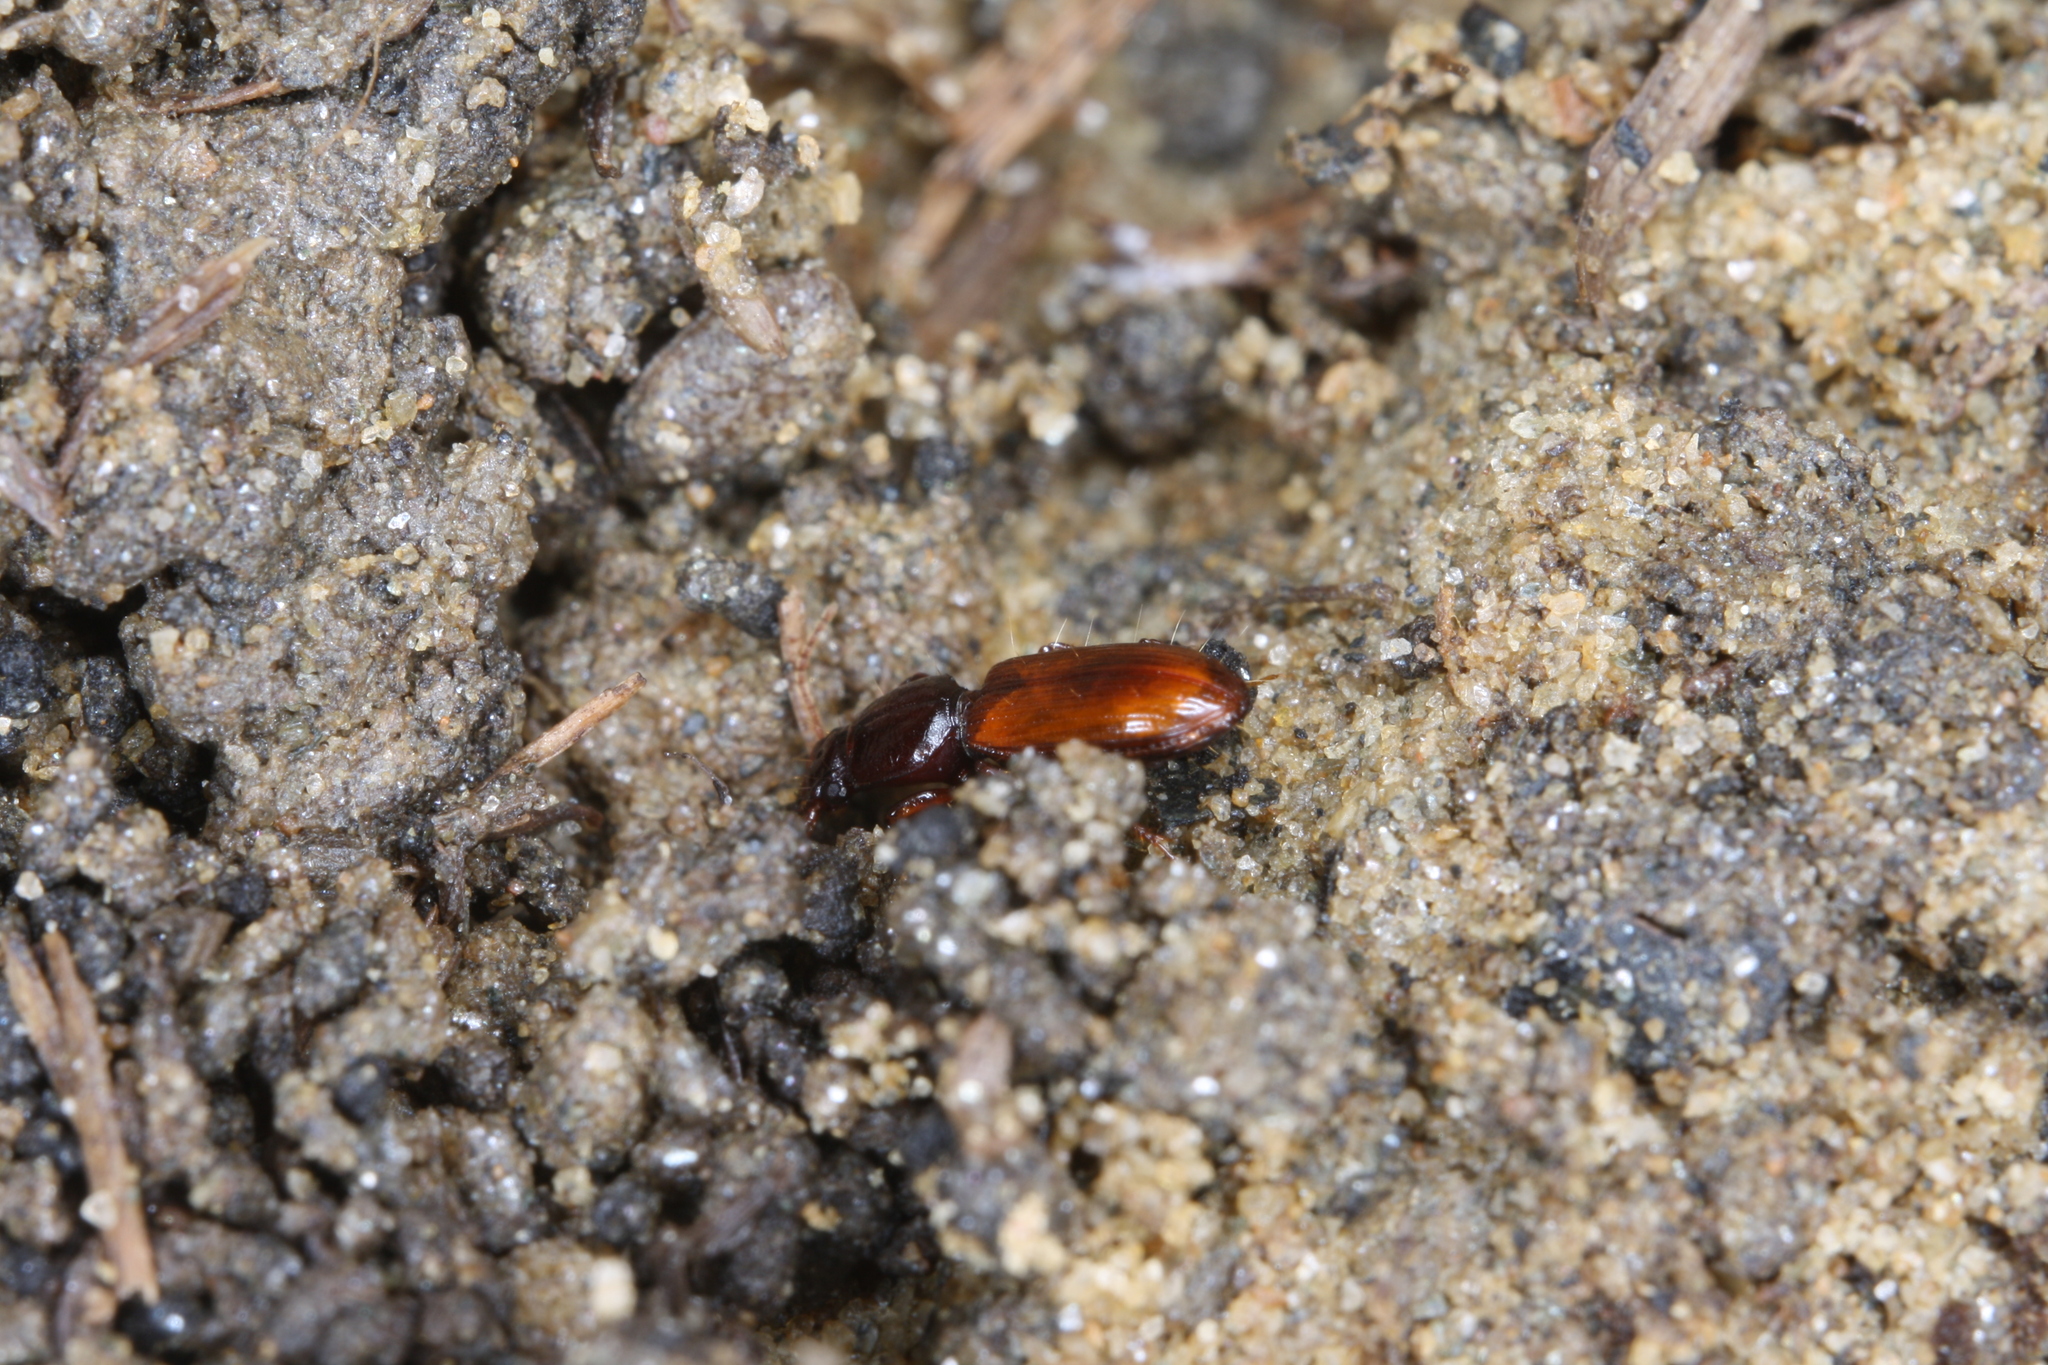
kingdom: Animalia
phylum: Arthropoda
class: Insecta
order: Coleoptera
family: Carabidae
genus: Clivina
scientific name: Clivina collaris
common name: Collared pedunculate ground beetle
